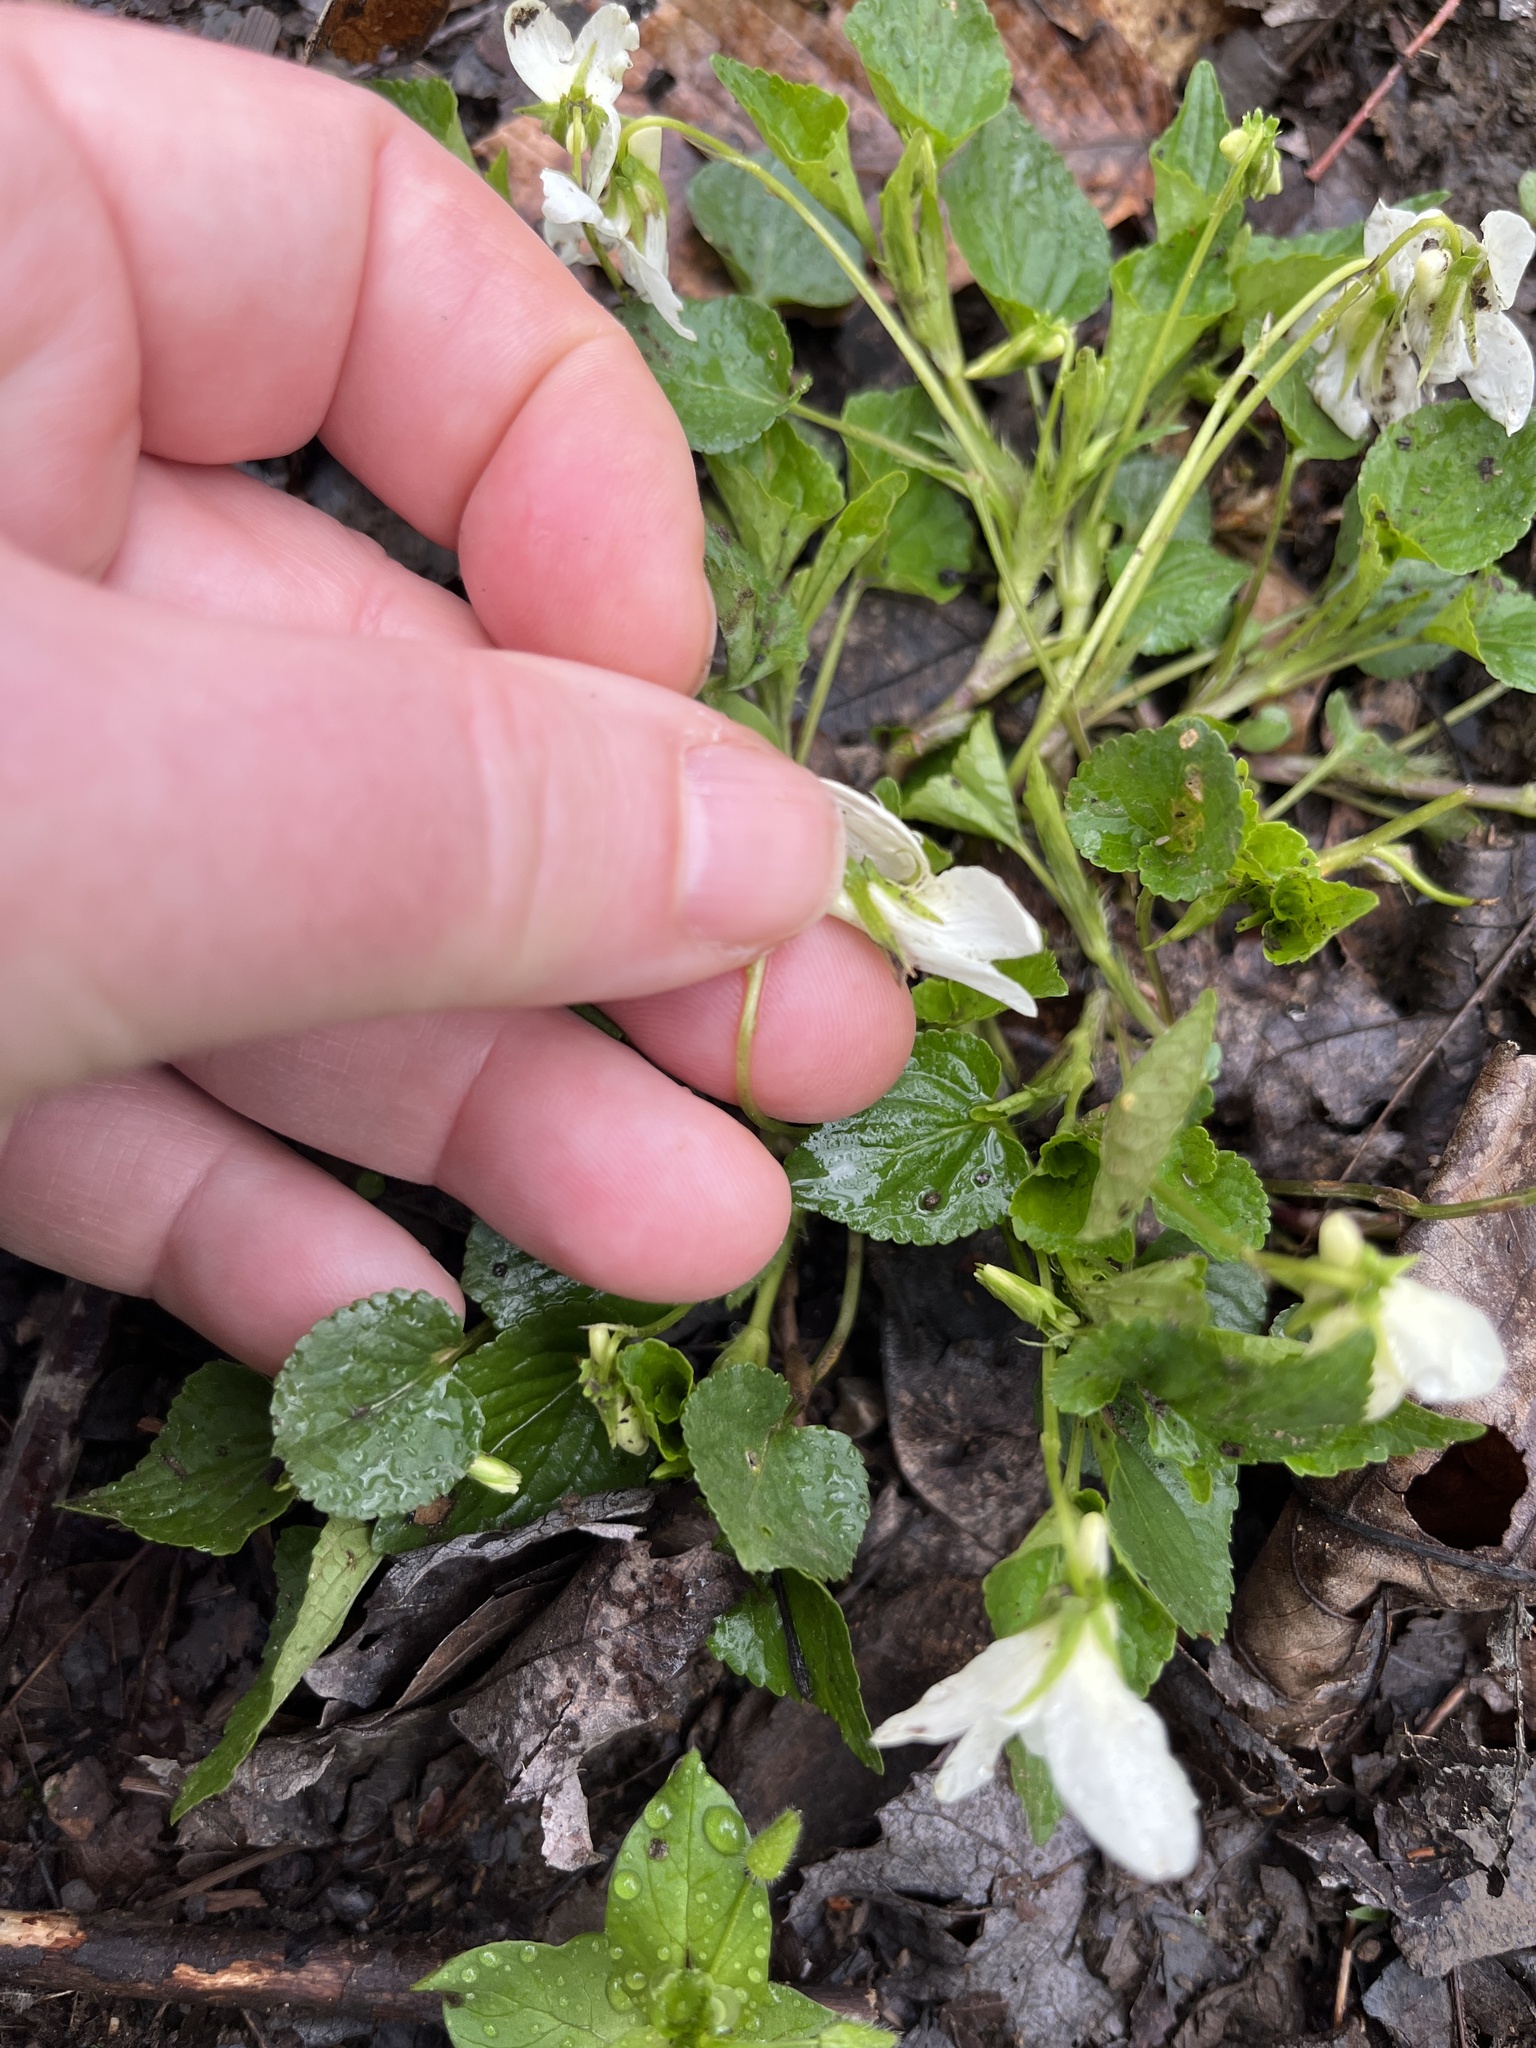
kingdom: Plantae
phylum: Tracheophyta
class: Magnoliopsida
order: Malpighiales
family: Violaceae
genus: Viola
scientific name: Viola striata
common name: Cream violet
